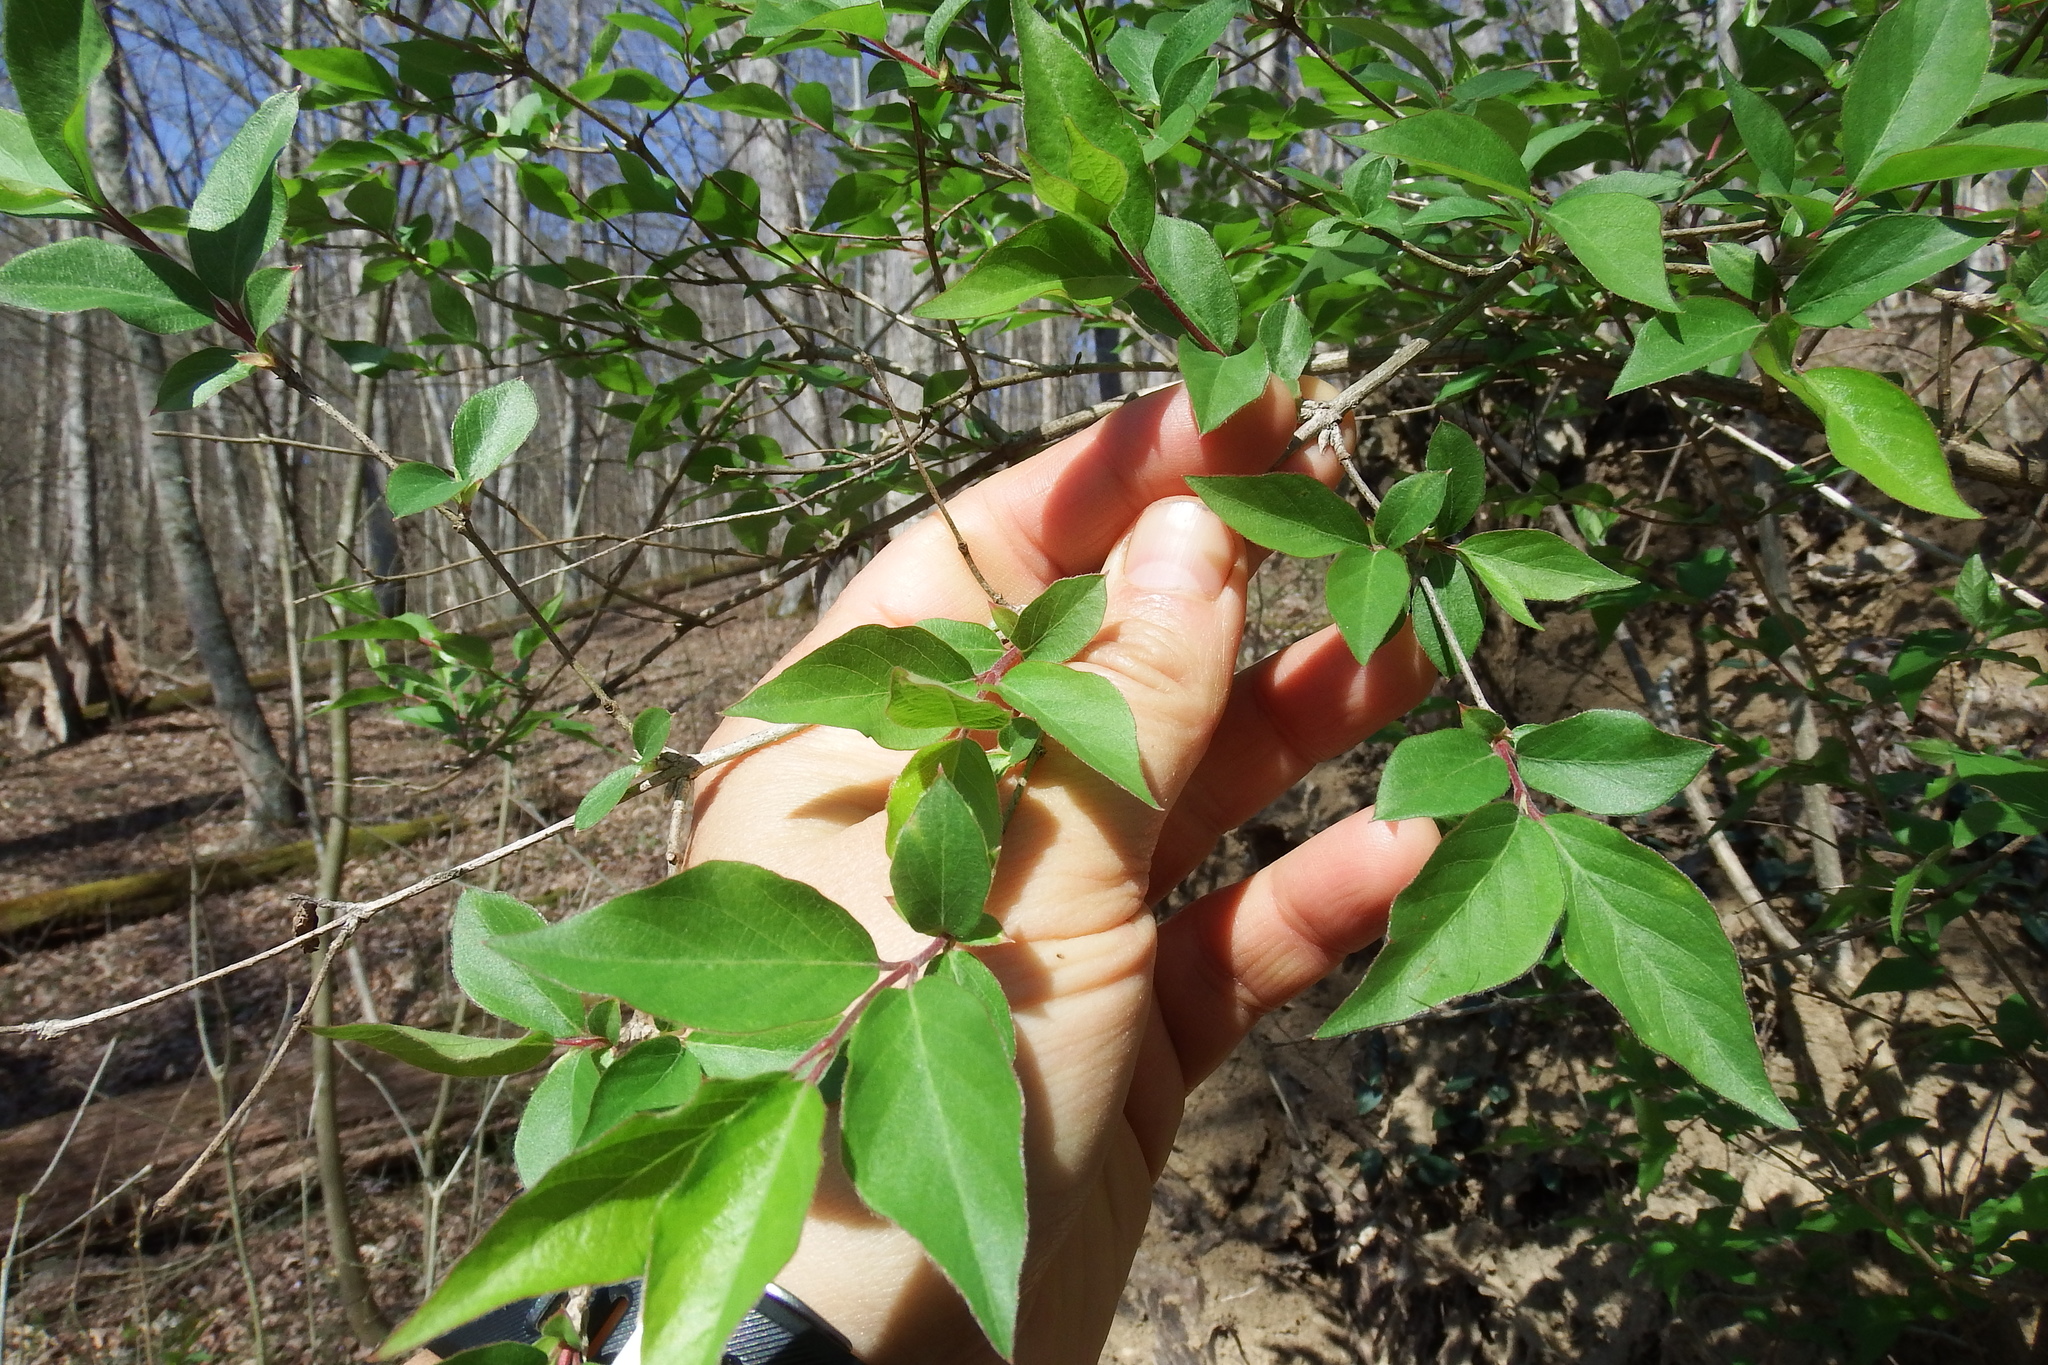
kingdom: Plantae
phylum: Tracheophyta
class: Magnoliopsida
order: Dipsacales
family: Caprifoliaceae
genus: Lonicera
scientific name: Lonicera maackii
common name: Amur honeysuckle
